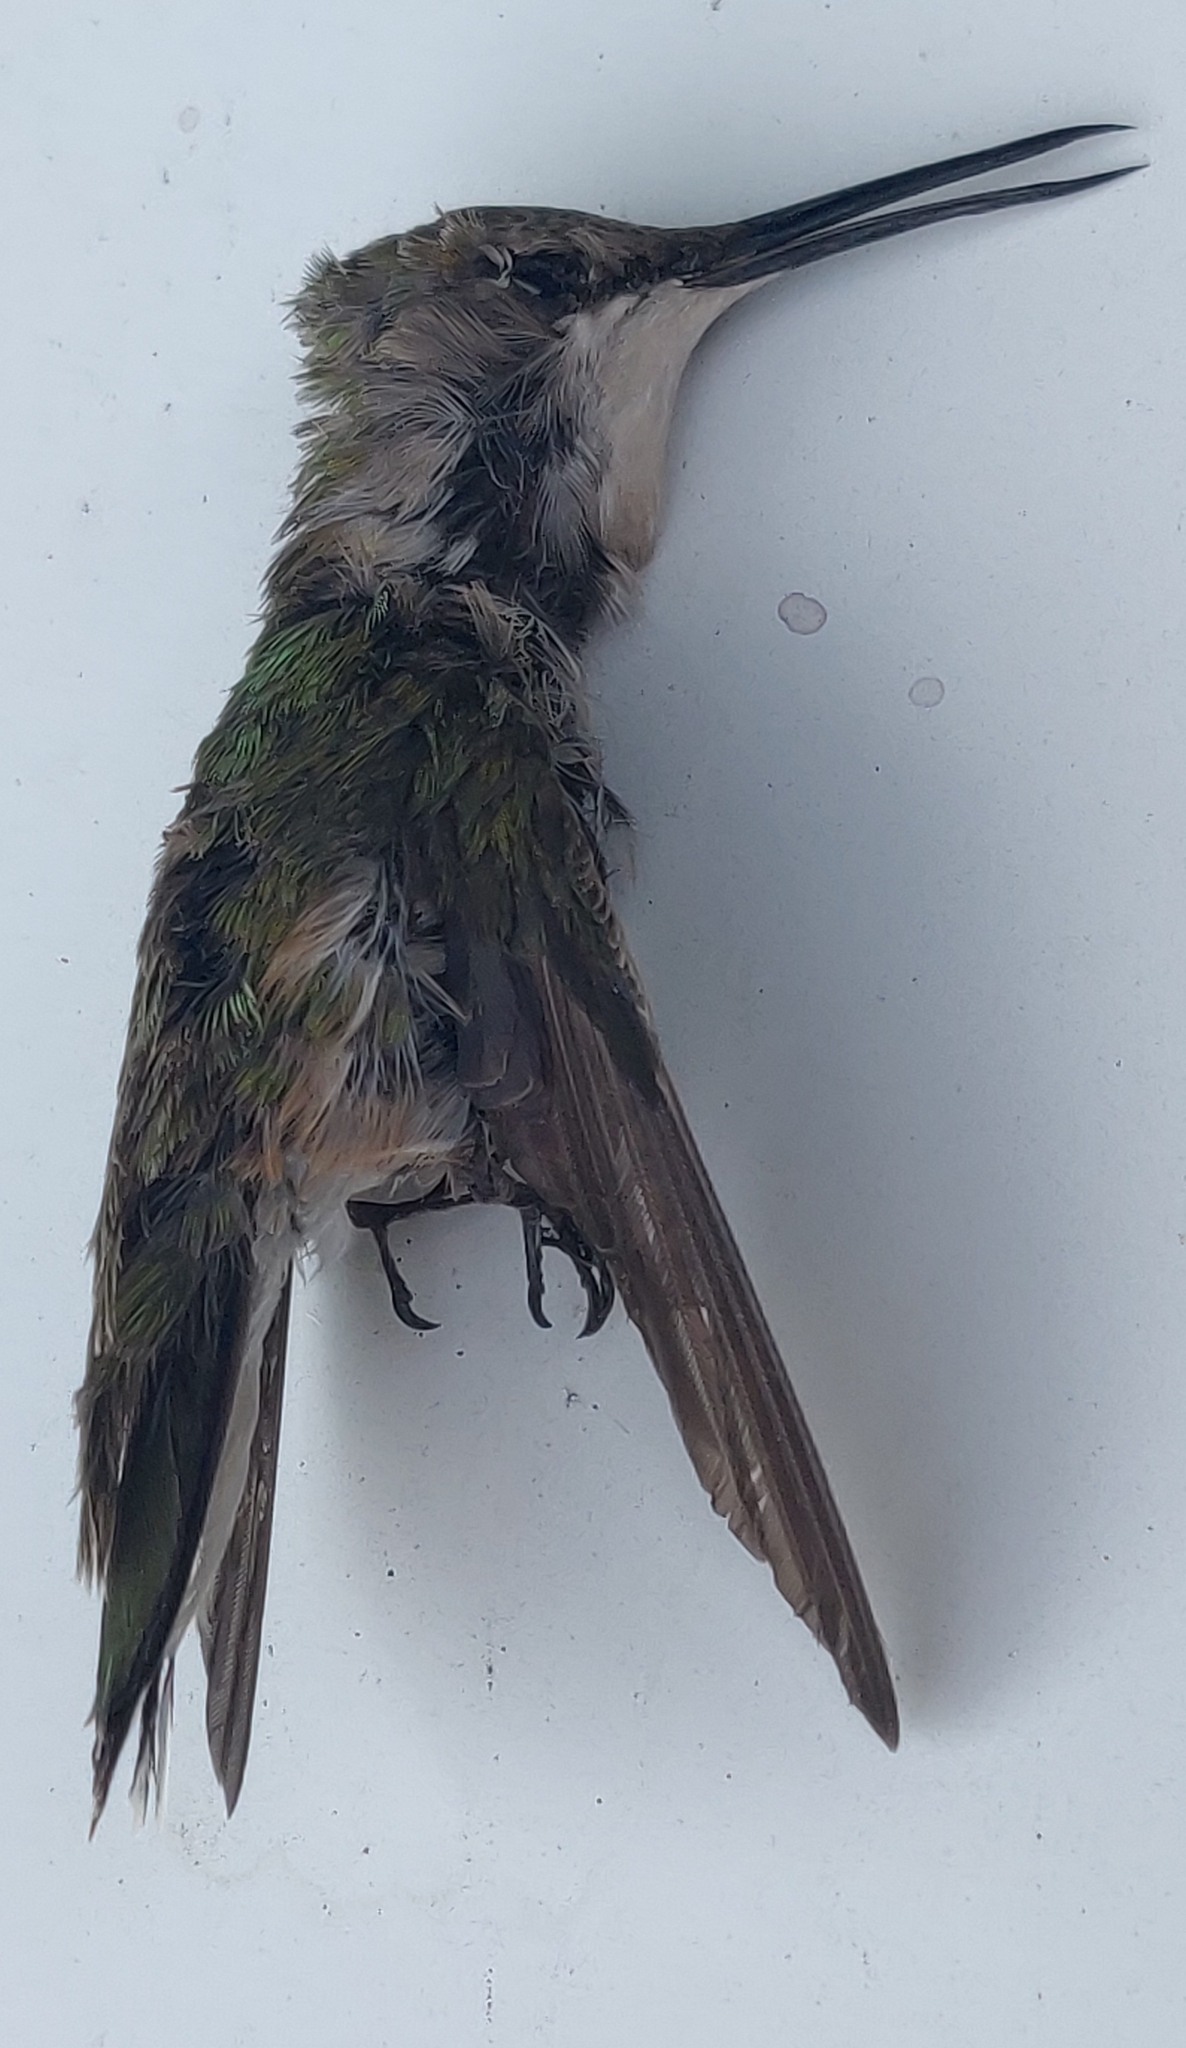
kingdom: Animalia
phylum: Chordata
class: Aves
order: Apodiformes
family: Trochilidae
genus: Archilochus
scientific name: Archilochus colubris
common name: Ruby-throated hummingbird
